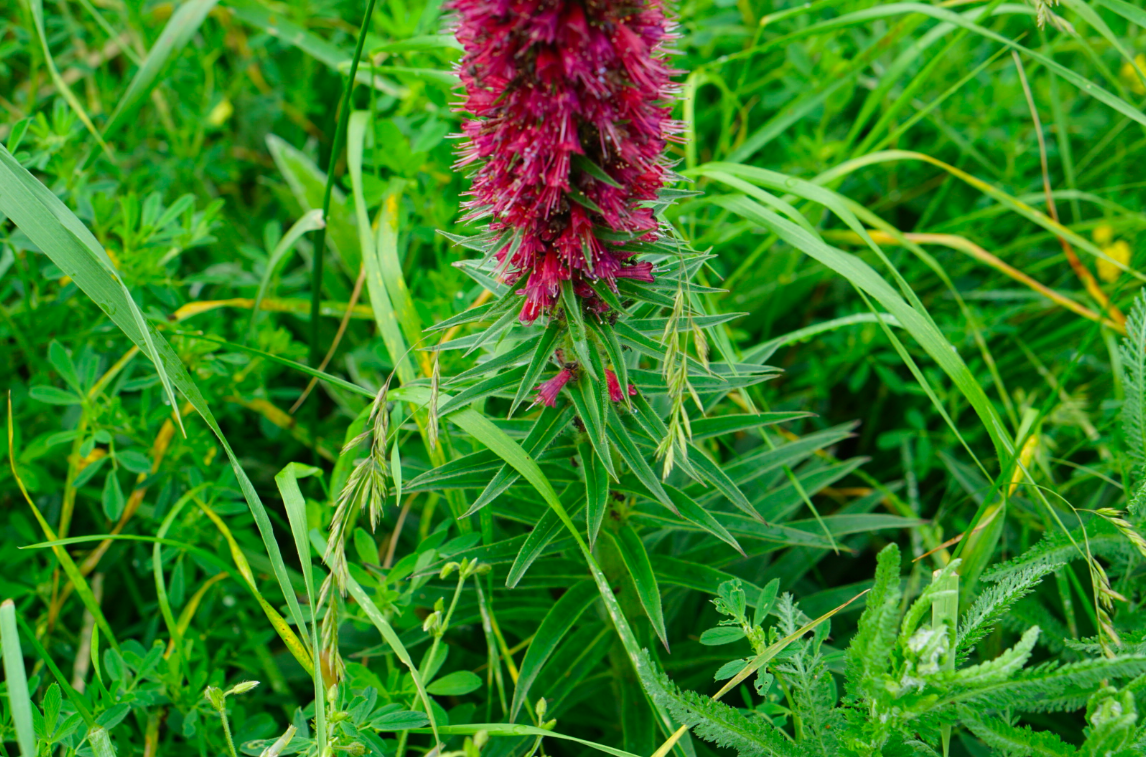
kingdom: Plantae
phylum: Tracheophyta
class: Magnoliopsida
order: Boraginales
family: Boraginaceae
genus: Pontechium
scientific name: Pontechium maculatum
